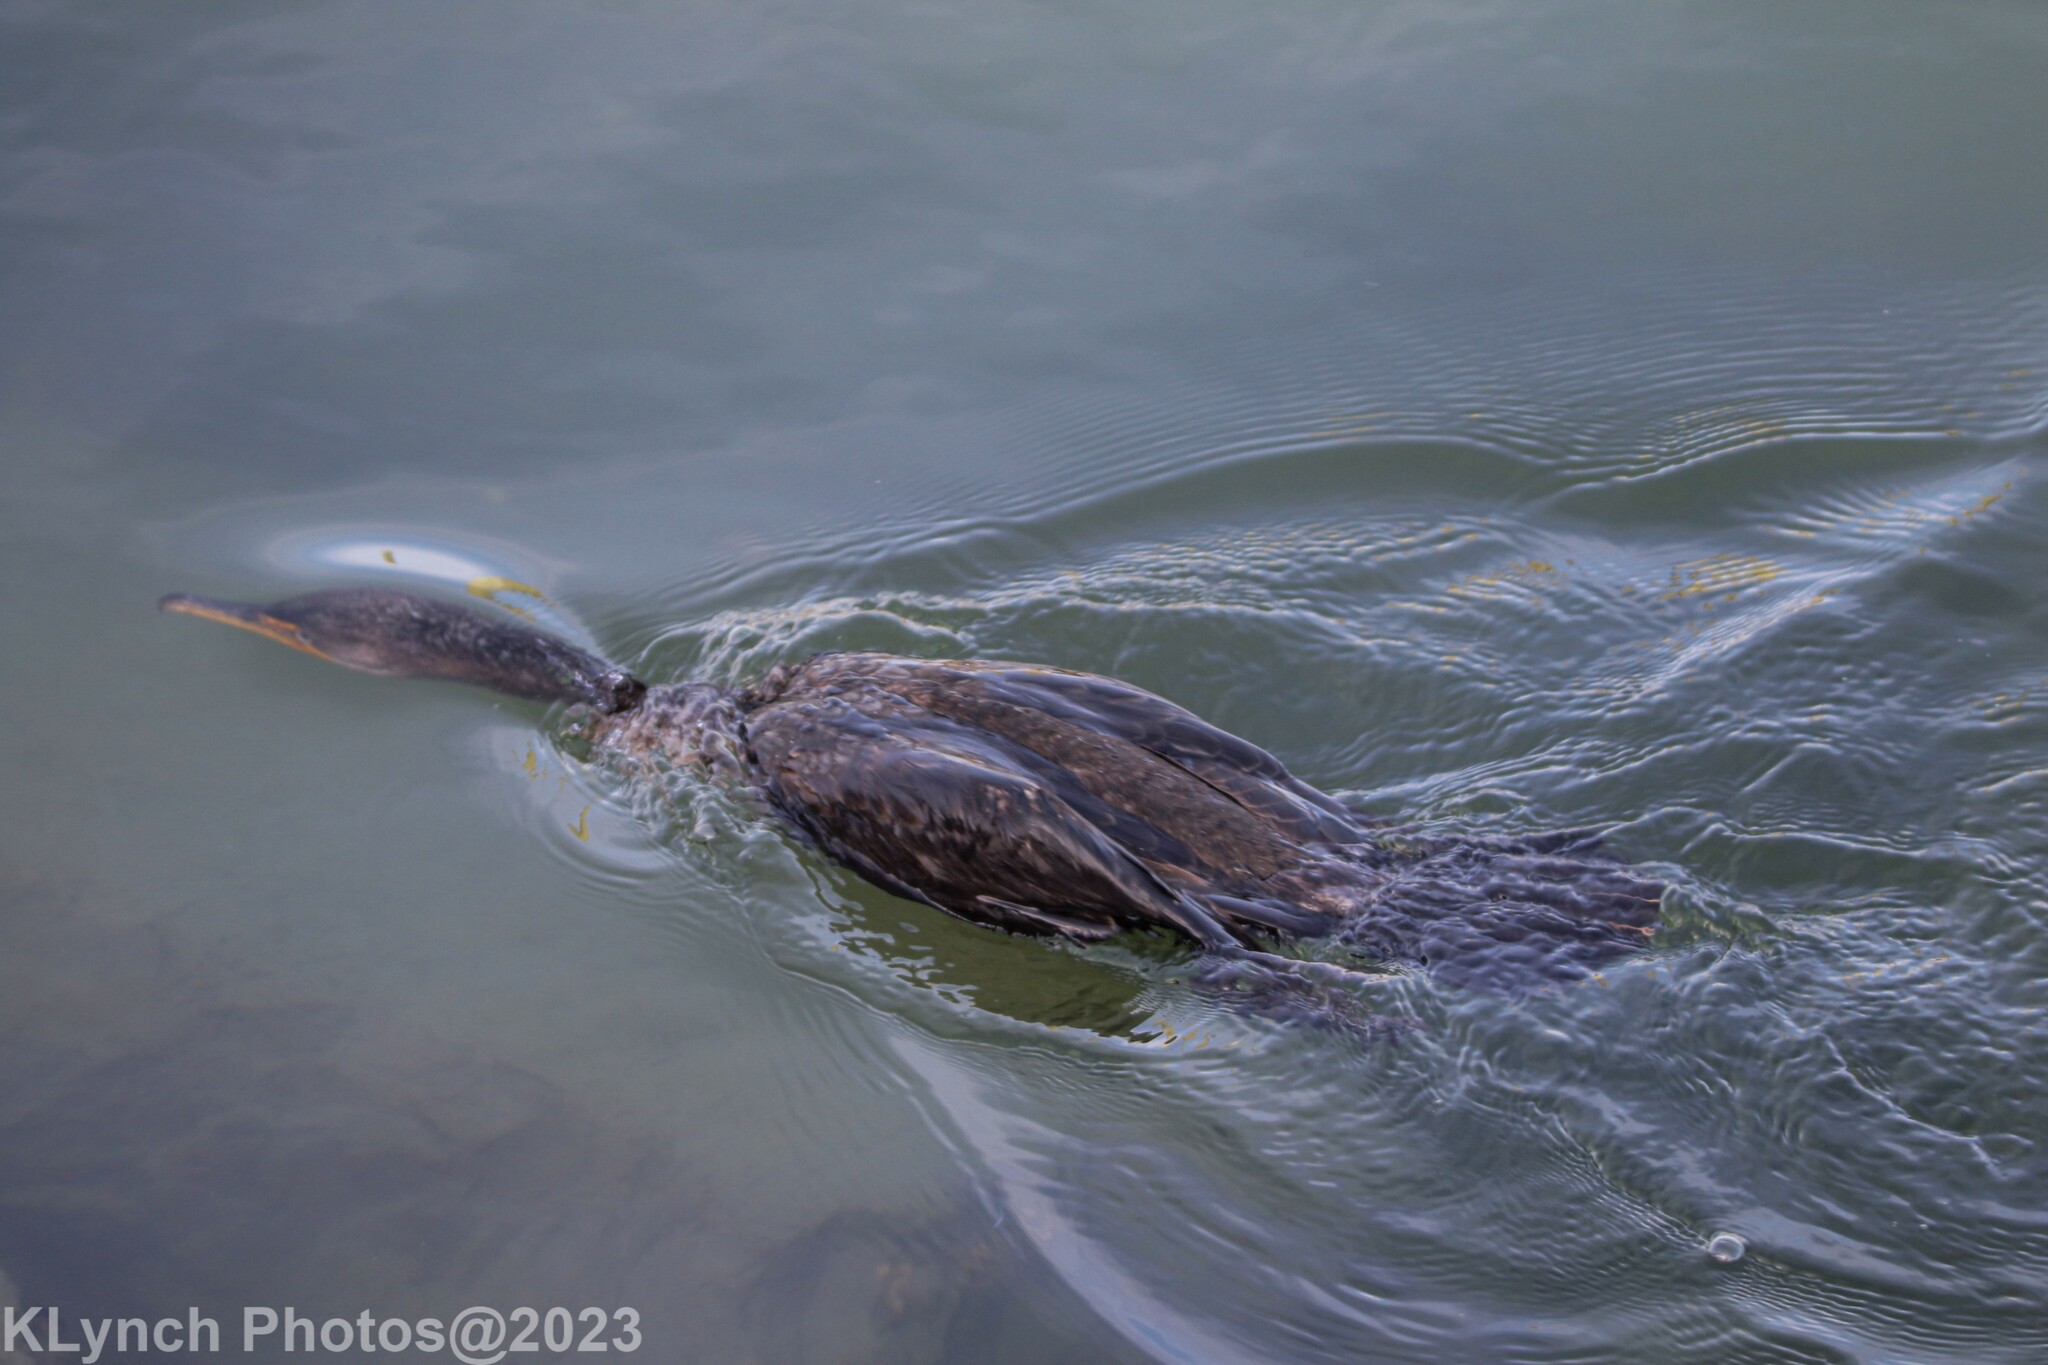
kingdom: Animalia
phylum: Chordata
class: Aves
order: Suliformes
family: Phalacrocoracidae
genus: Phalacrocorax
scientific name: Phalacrocorax auritus
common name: Double-crested cormorant
